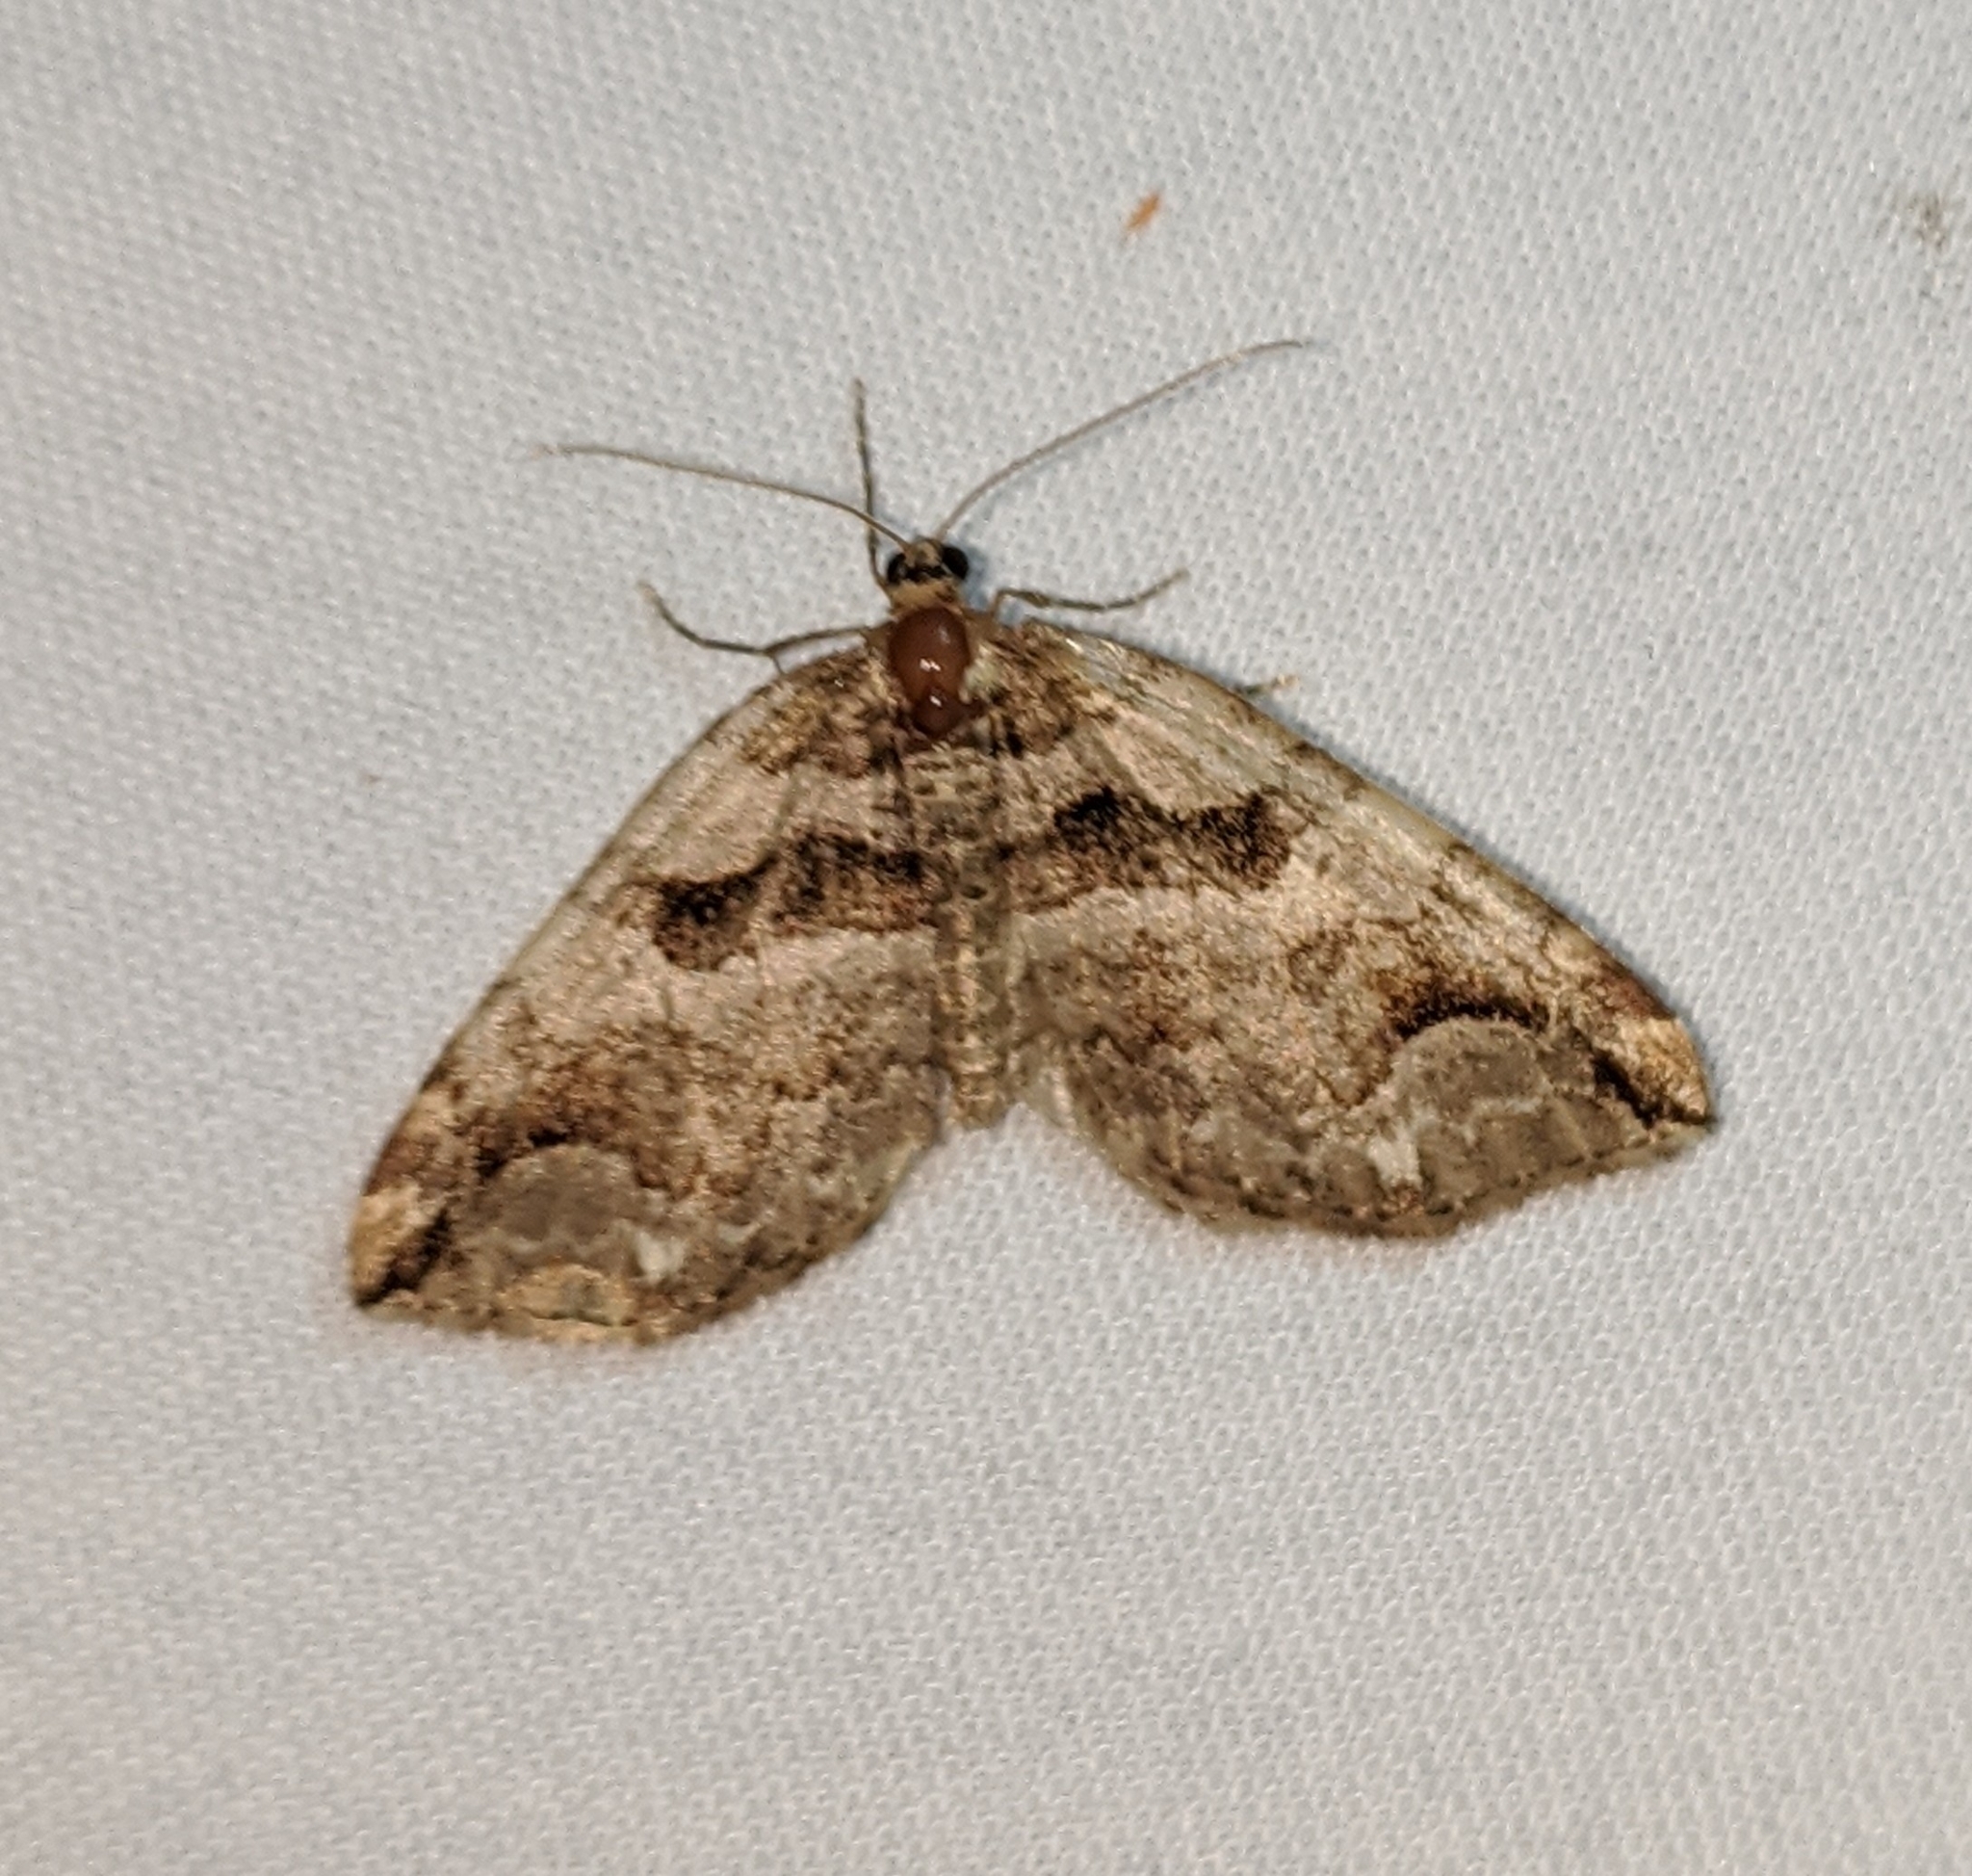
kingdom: Animalia
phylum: Arthropoda
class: Insecta
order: Lepidoptera
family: Geometridae
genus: Anticlea
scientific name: Anticlea vasiliata
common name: Variable carpet
